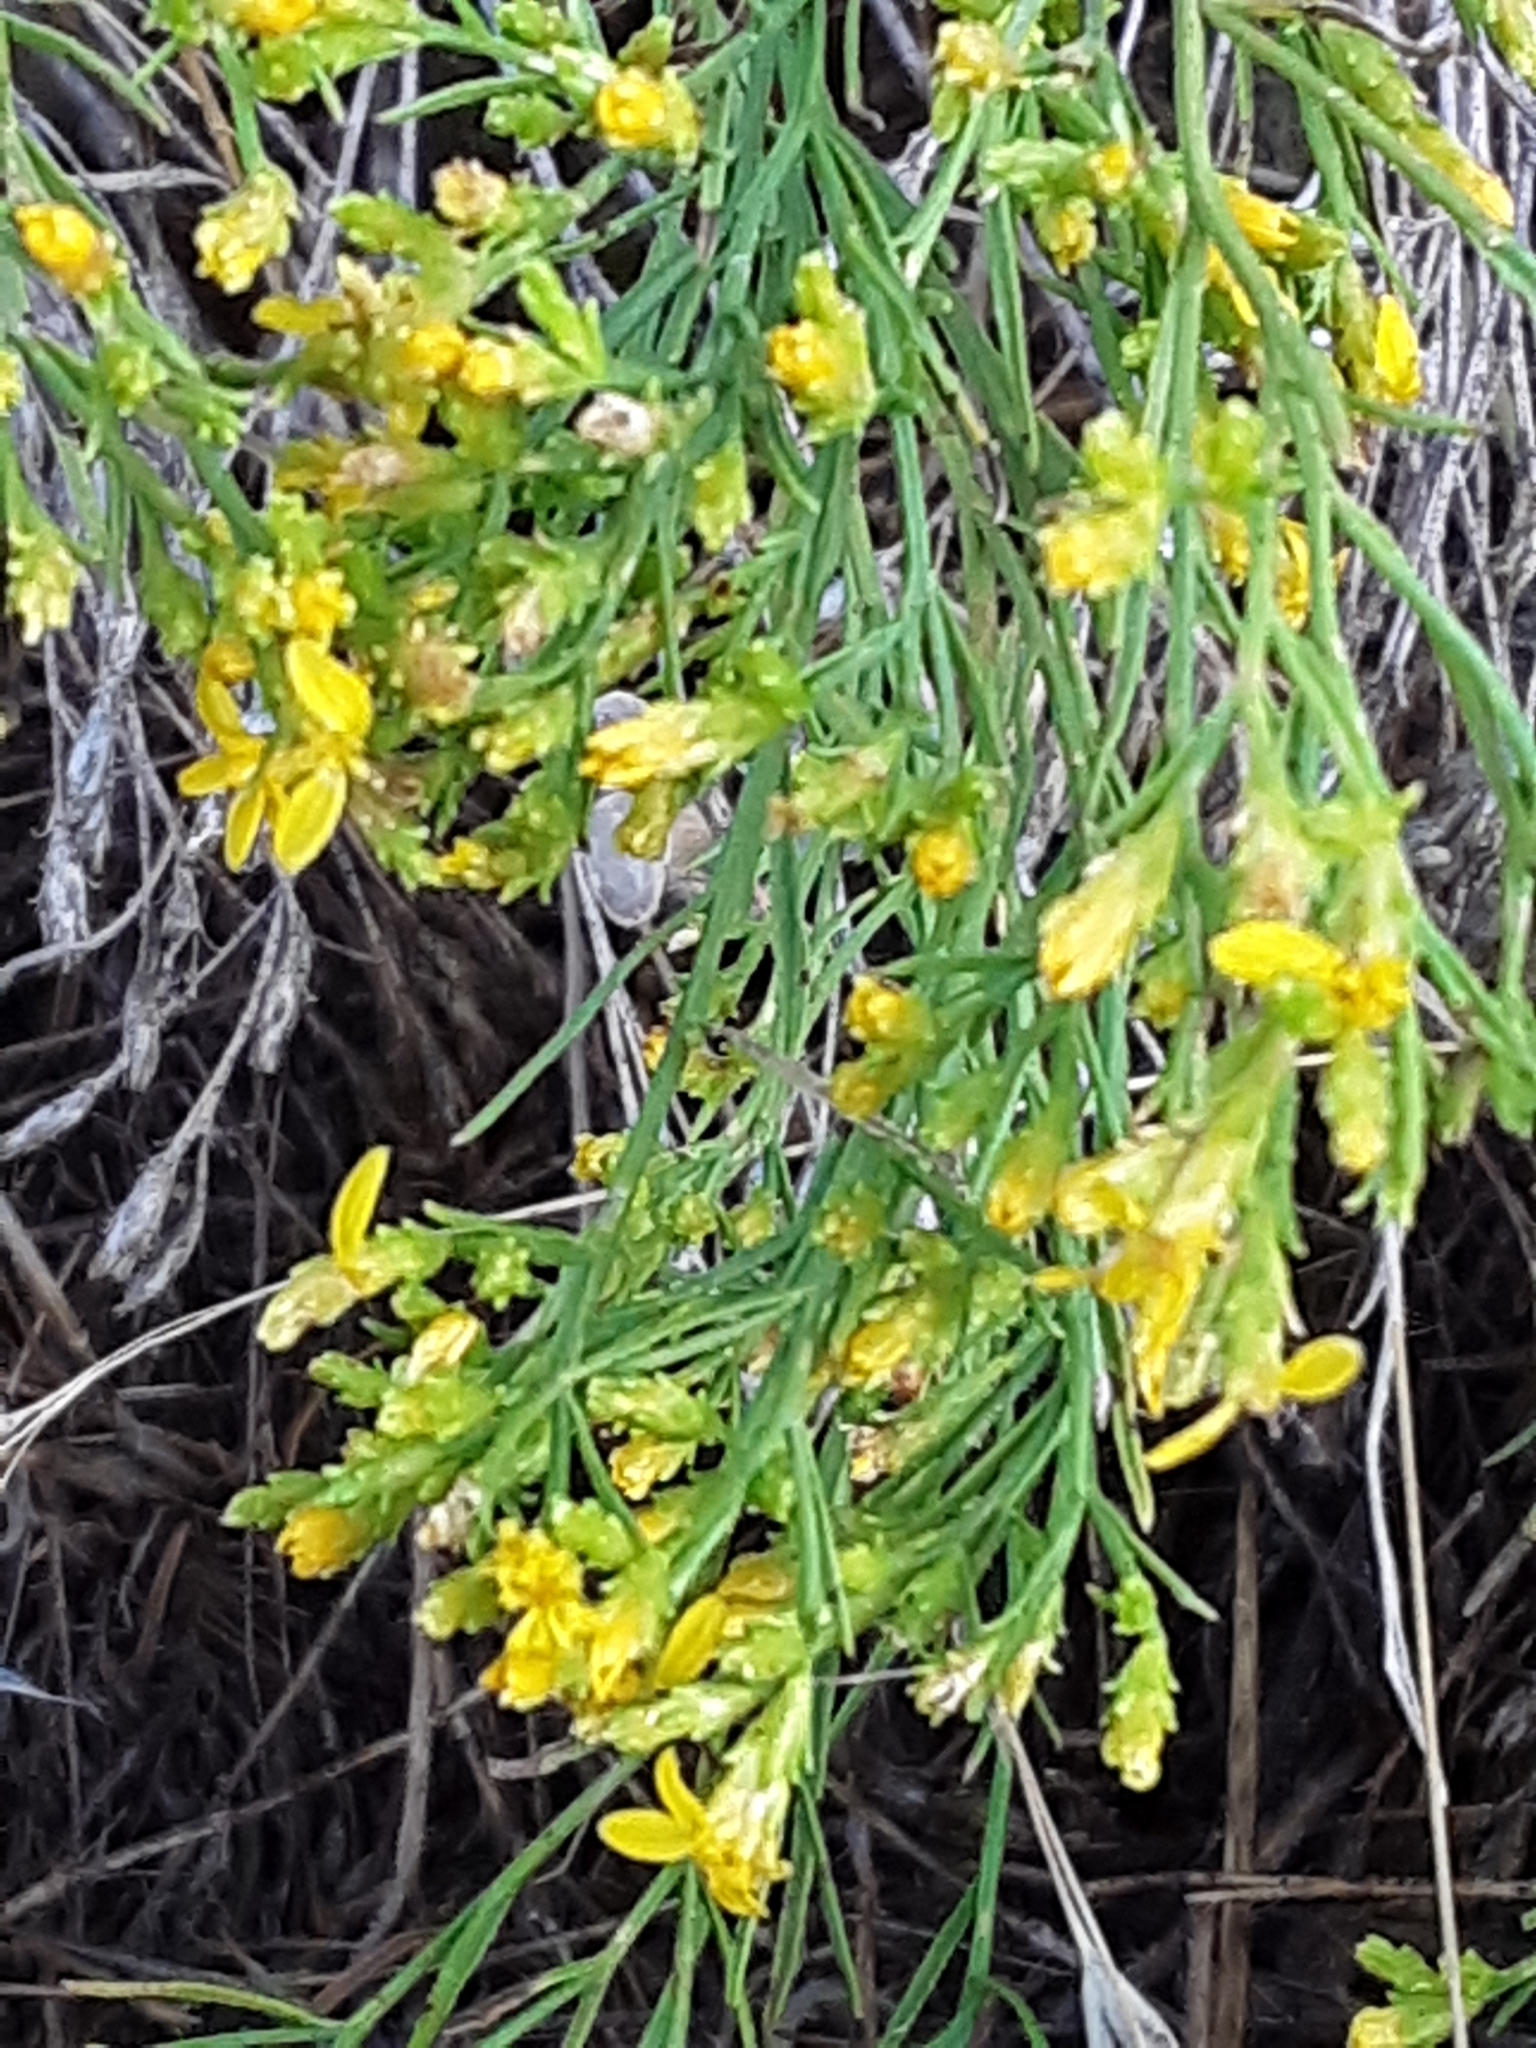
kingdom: Plantae
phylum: Tracheophyta
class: Magnoliopsida
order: Asterales
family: Asteraceae
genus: Gutierrezia
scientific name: Gutierrezia sarothrae
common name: Broom snakeweed
